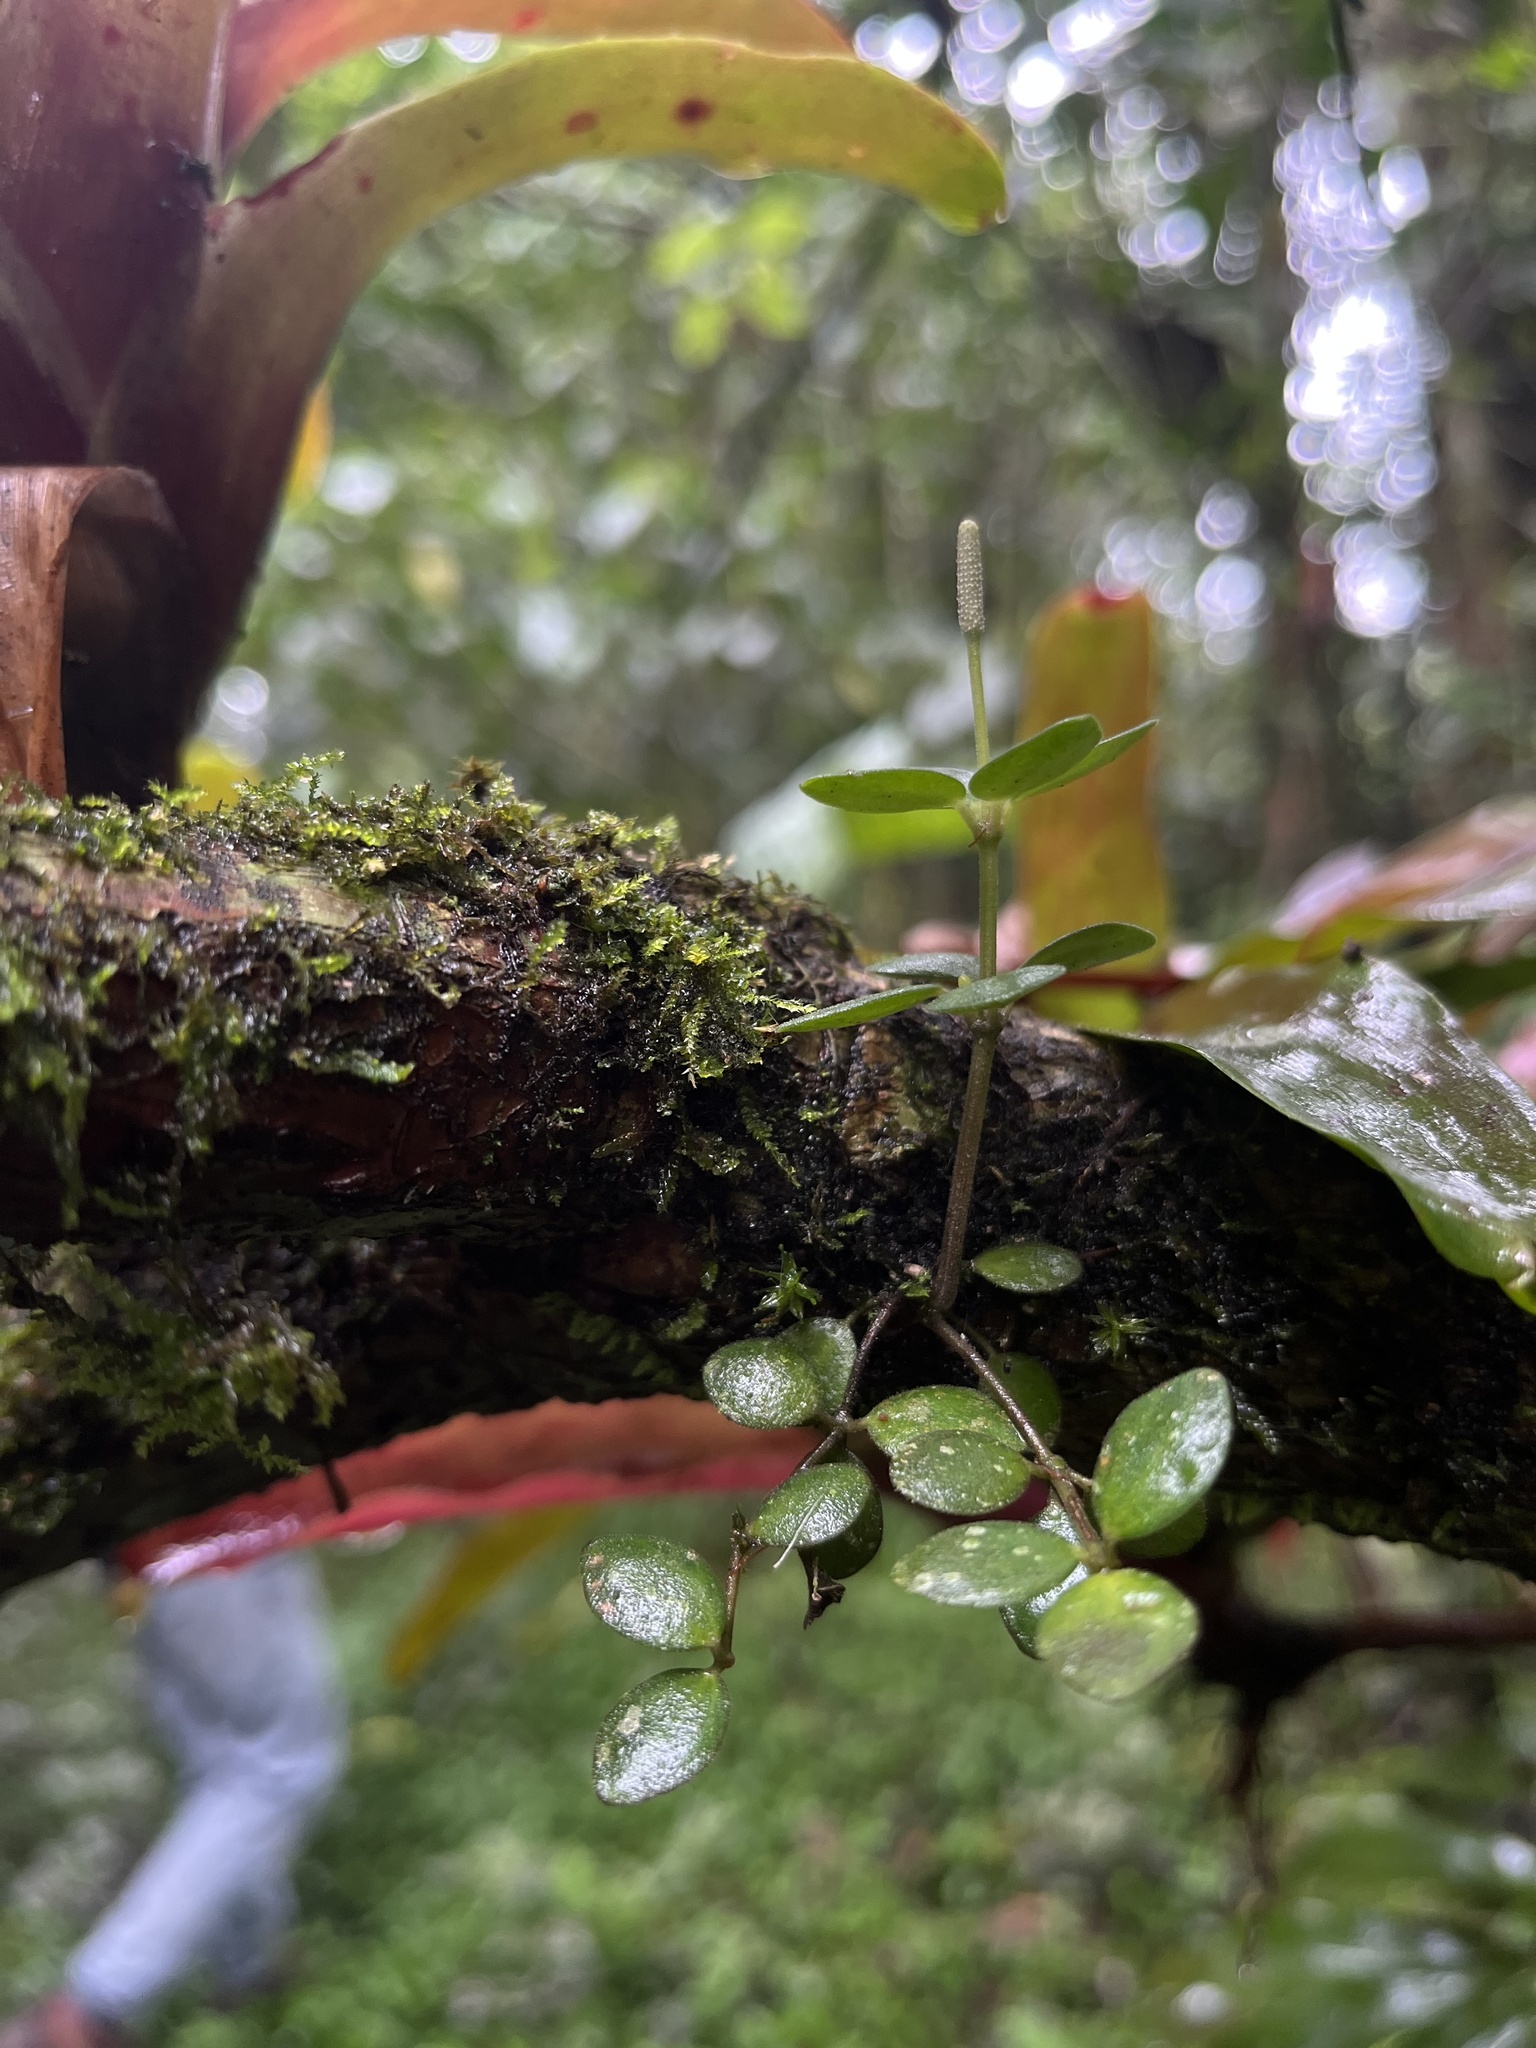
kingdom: Plantae
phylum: Tracheophyta
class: Magnoliopsida
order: Piperales
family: Piperaceae
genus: Peperomia
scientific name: Peperomia tetraphylla
